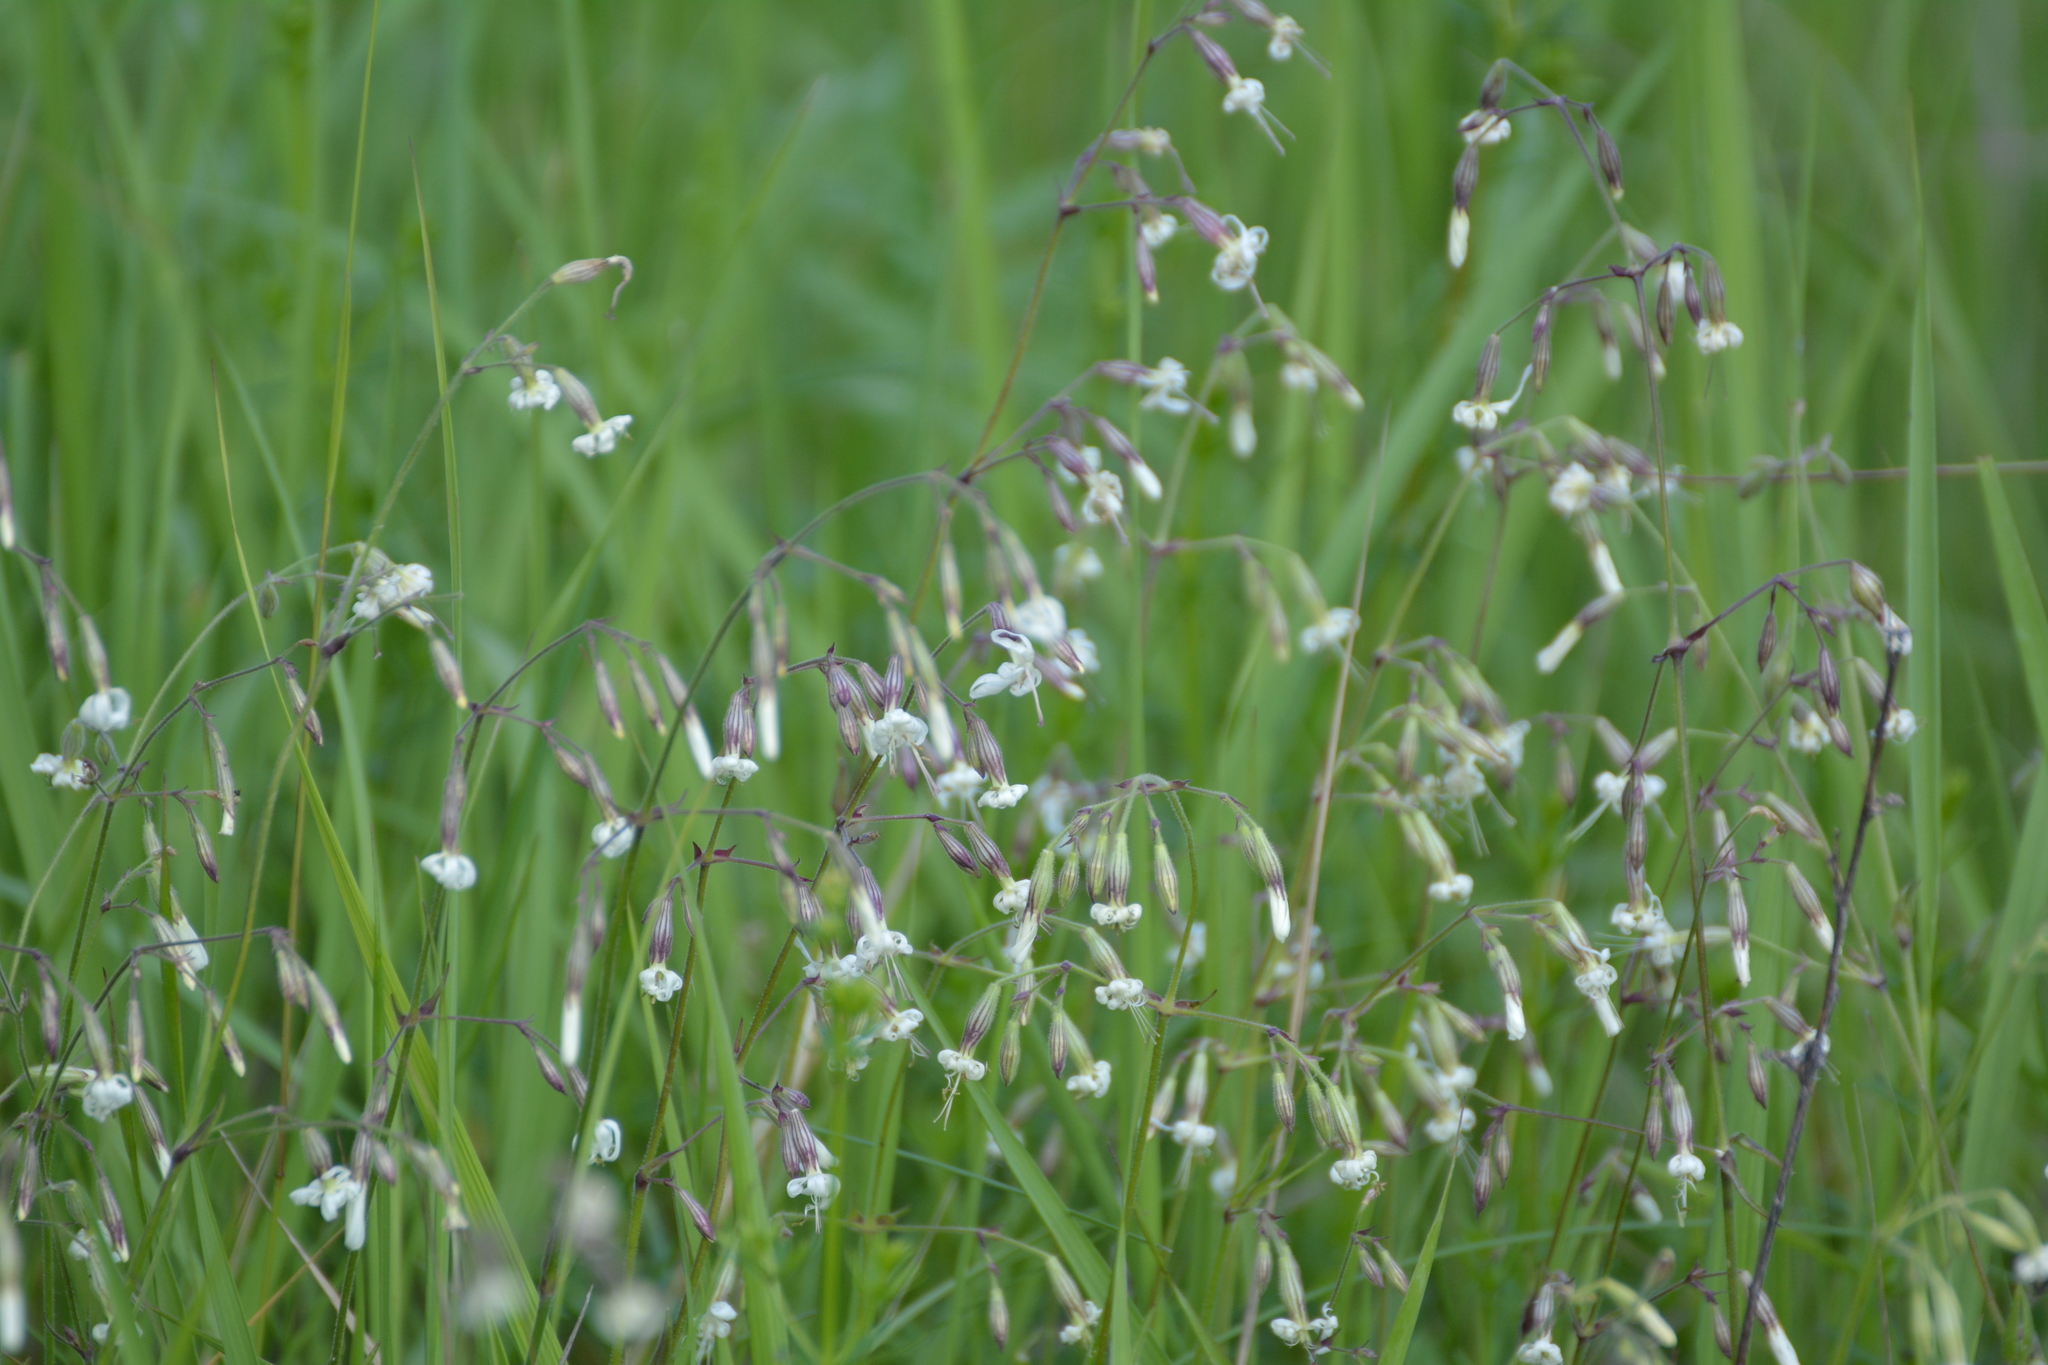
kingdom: Plantae
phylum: Tracheophyta
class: Magnoliopsida
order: Caryophyllales
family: Caryophyllaceae
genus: Silene
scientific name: Silene nutans
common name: Nottingham catchfly
